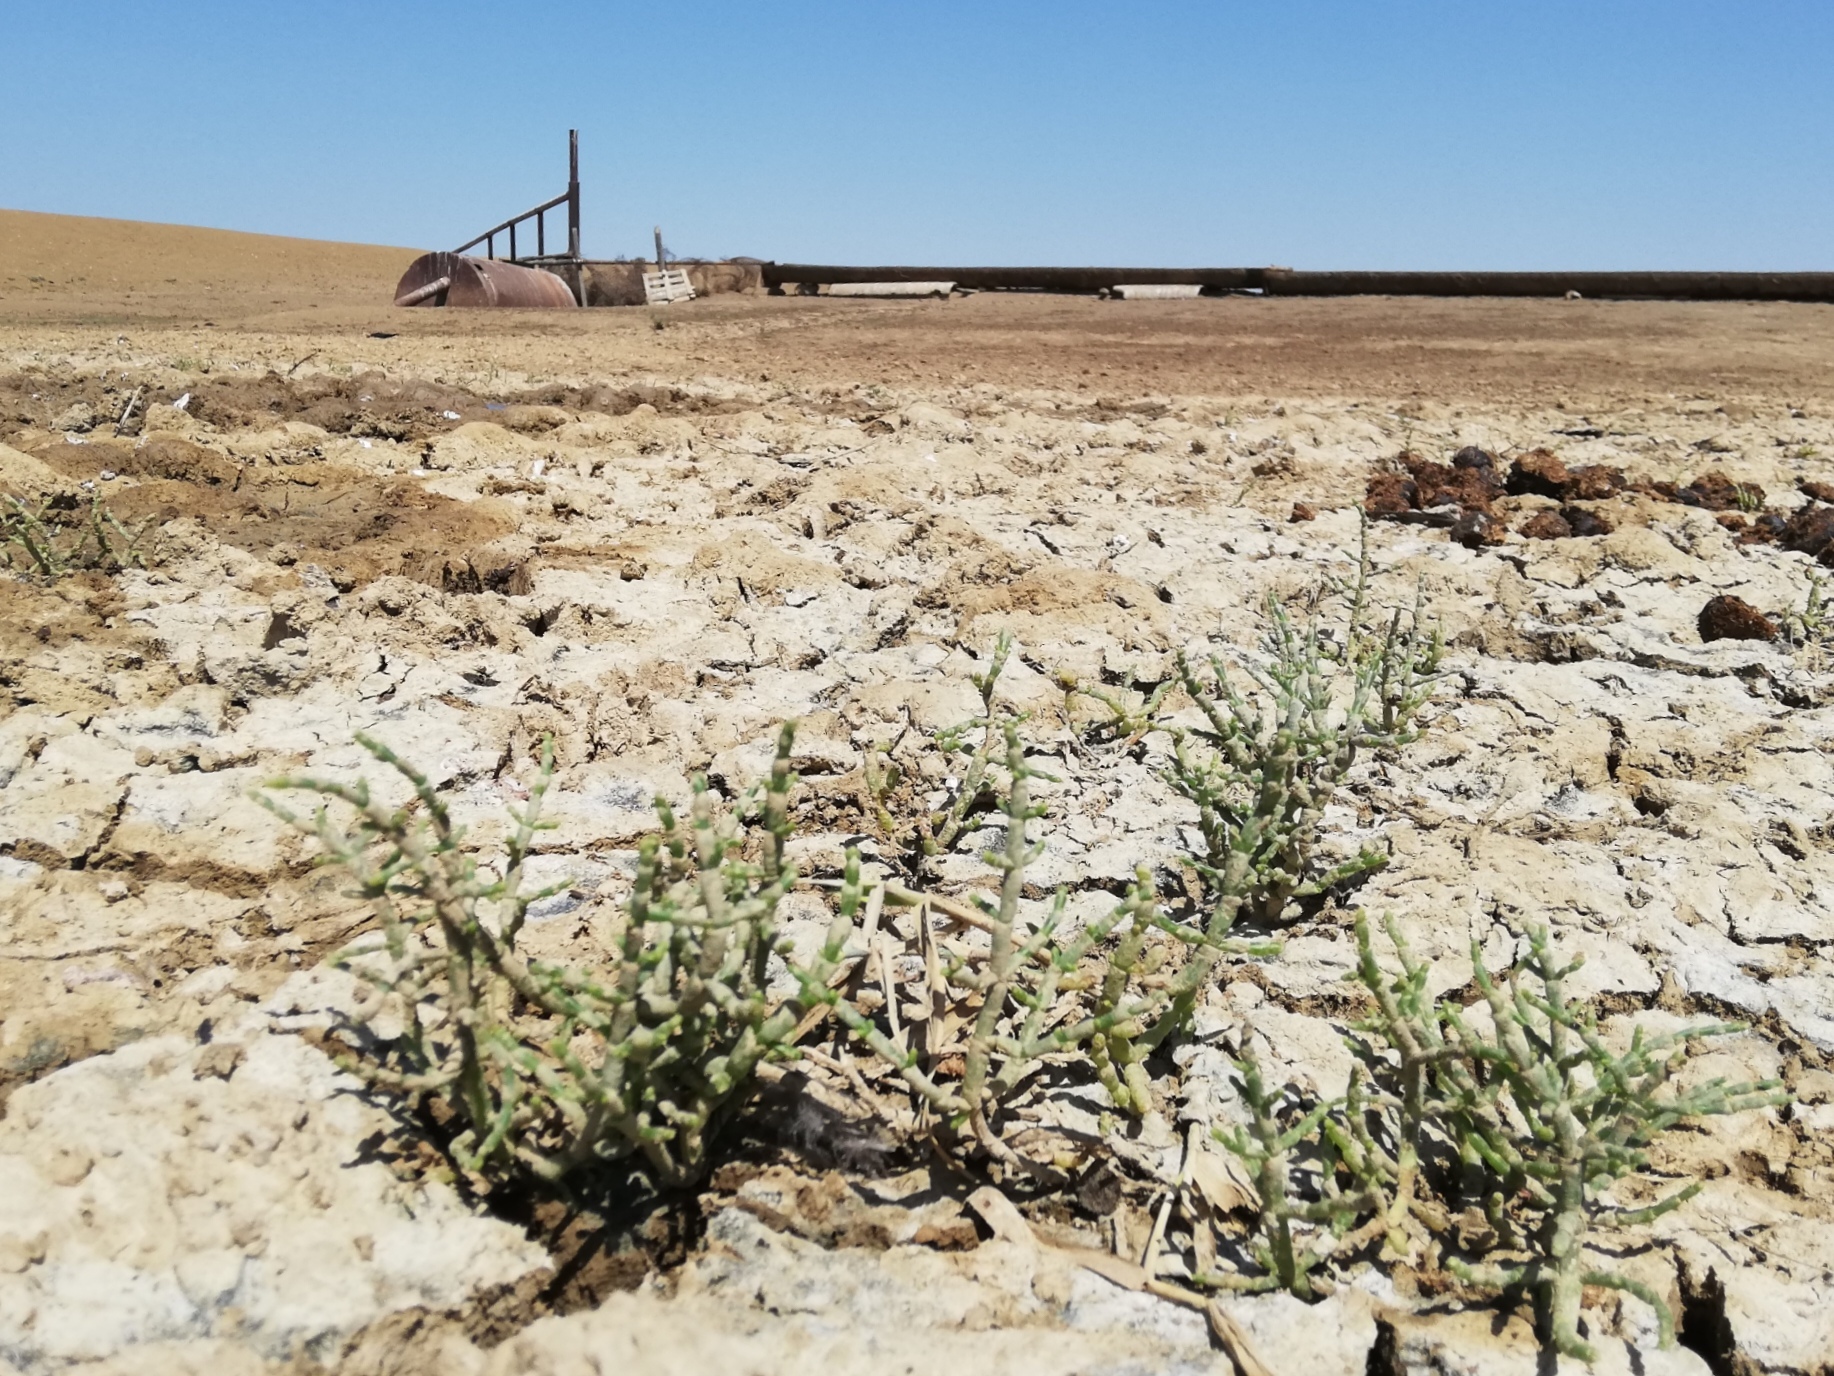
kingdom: Plantae
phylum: Tracheophyta
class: Magnoliopsida
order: Caryophyllales
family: Amaranthaceae
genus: Halocnemum
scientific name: Halocnemum strobilaceum
